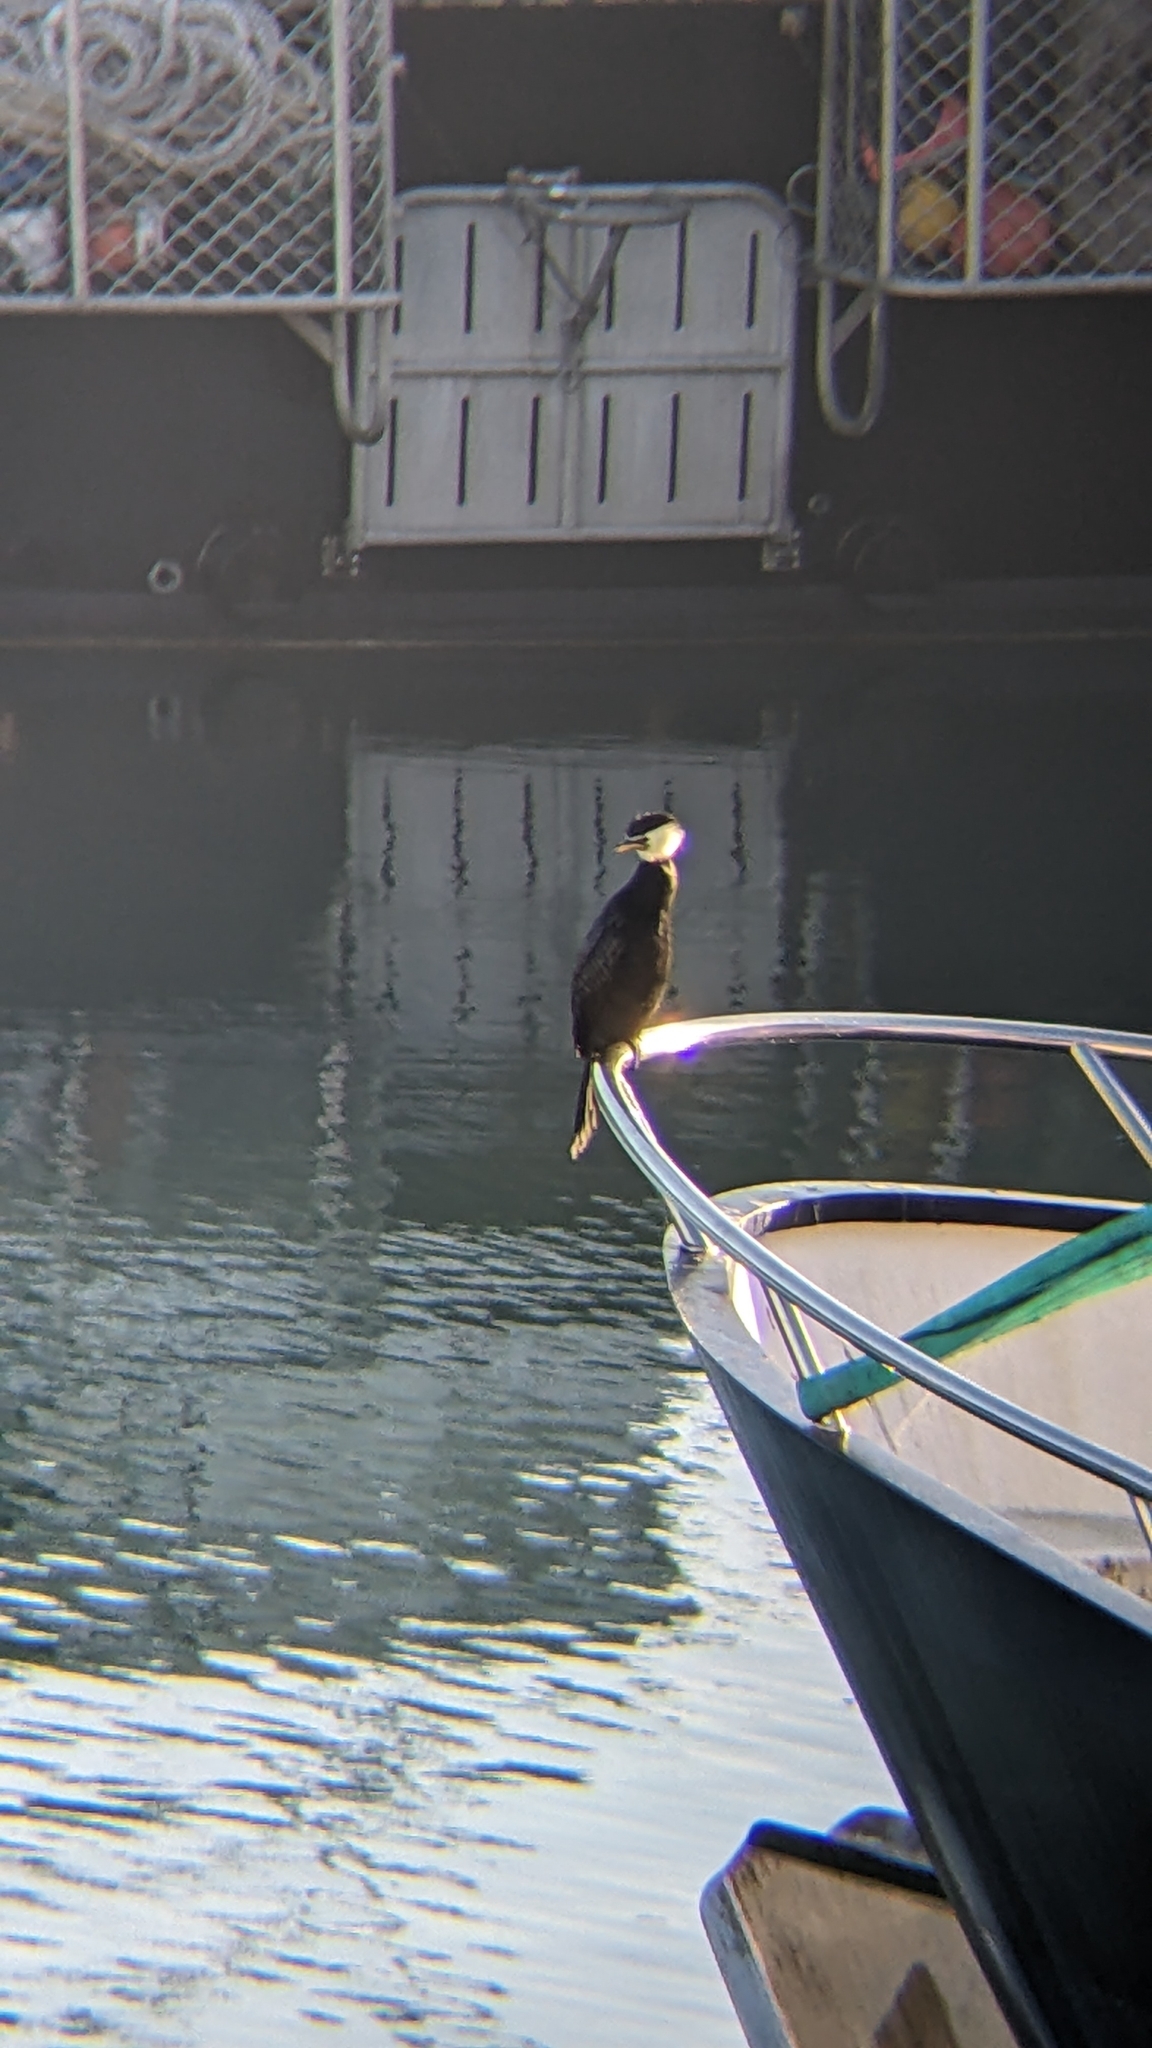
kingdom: Animalia
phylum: Chordata
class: Aves
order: Suliformes
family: Phalacrocoracidae
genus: Microcarbo
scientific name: Microcarbo melanoleucos
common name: Little pied cormorant
